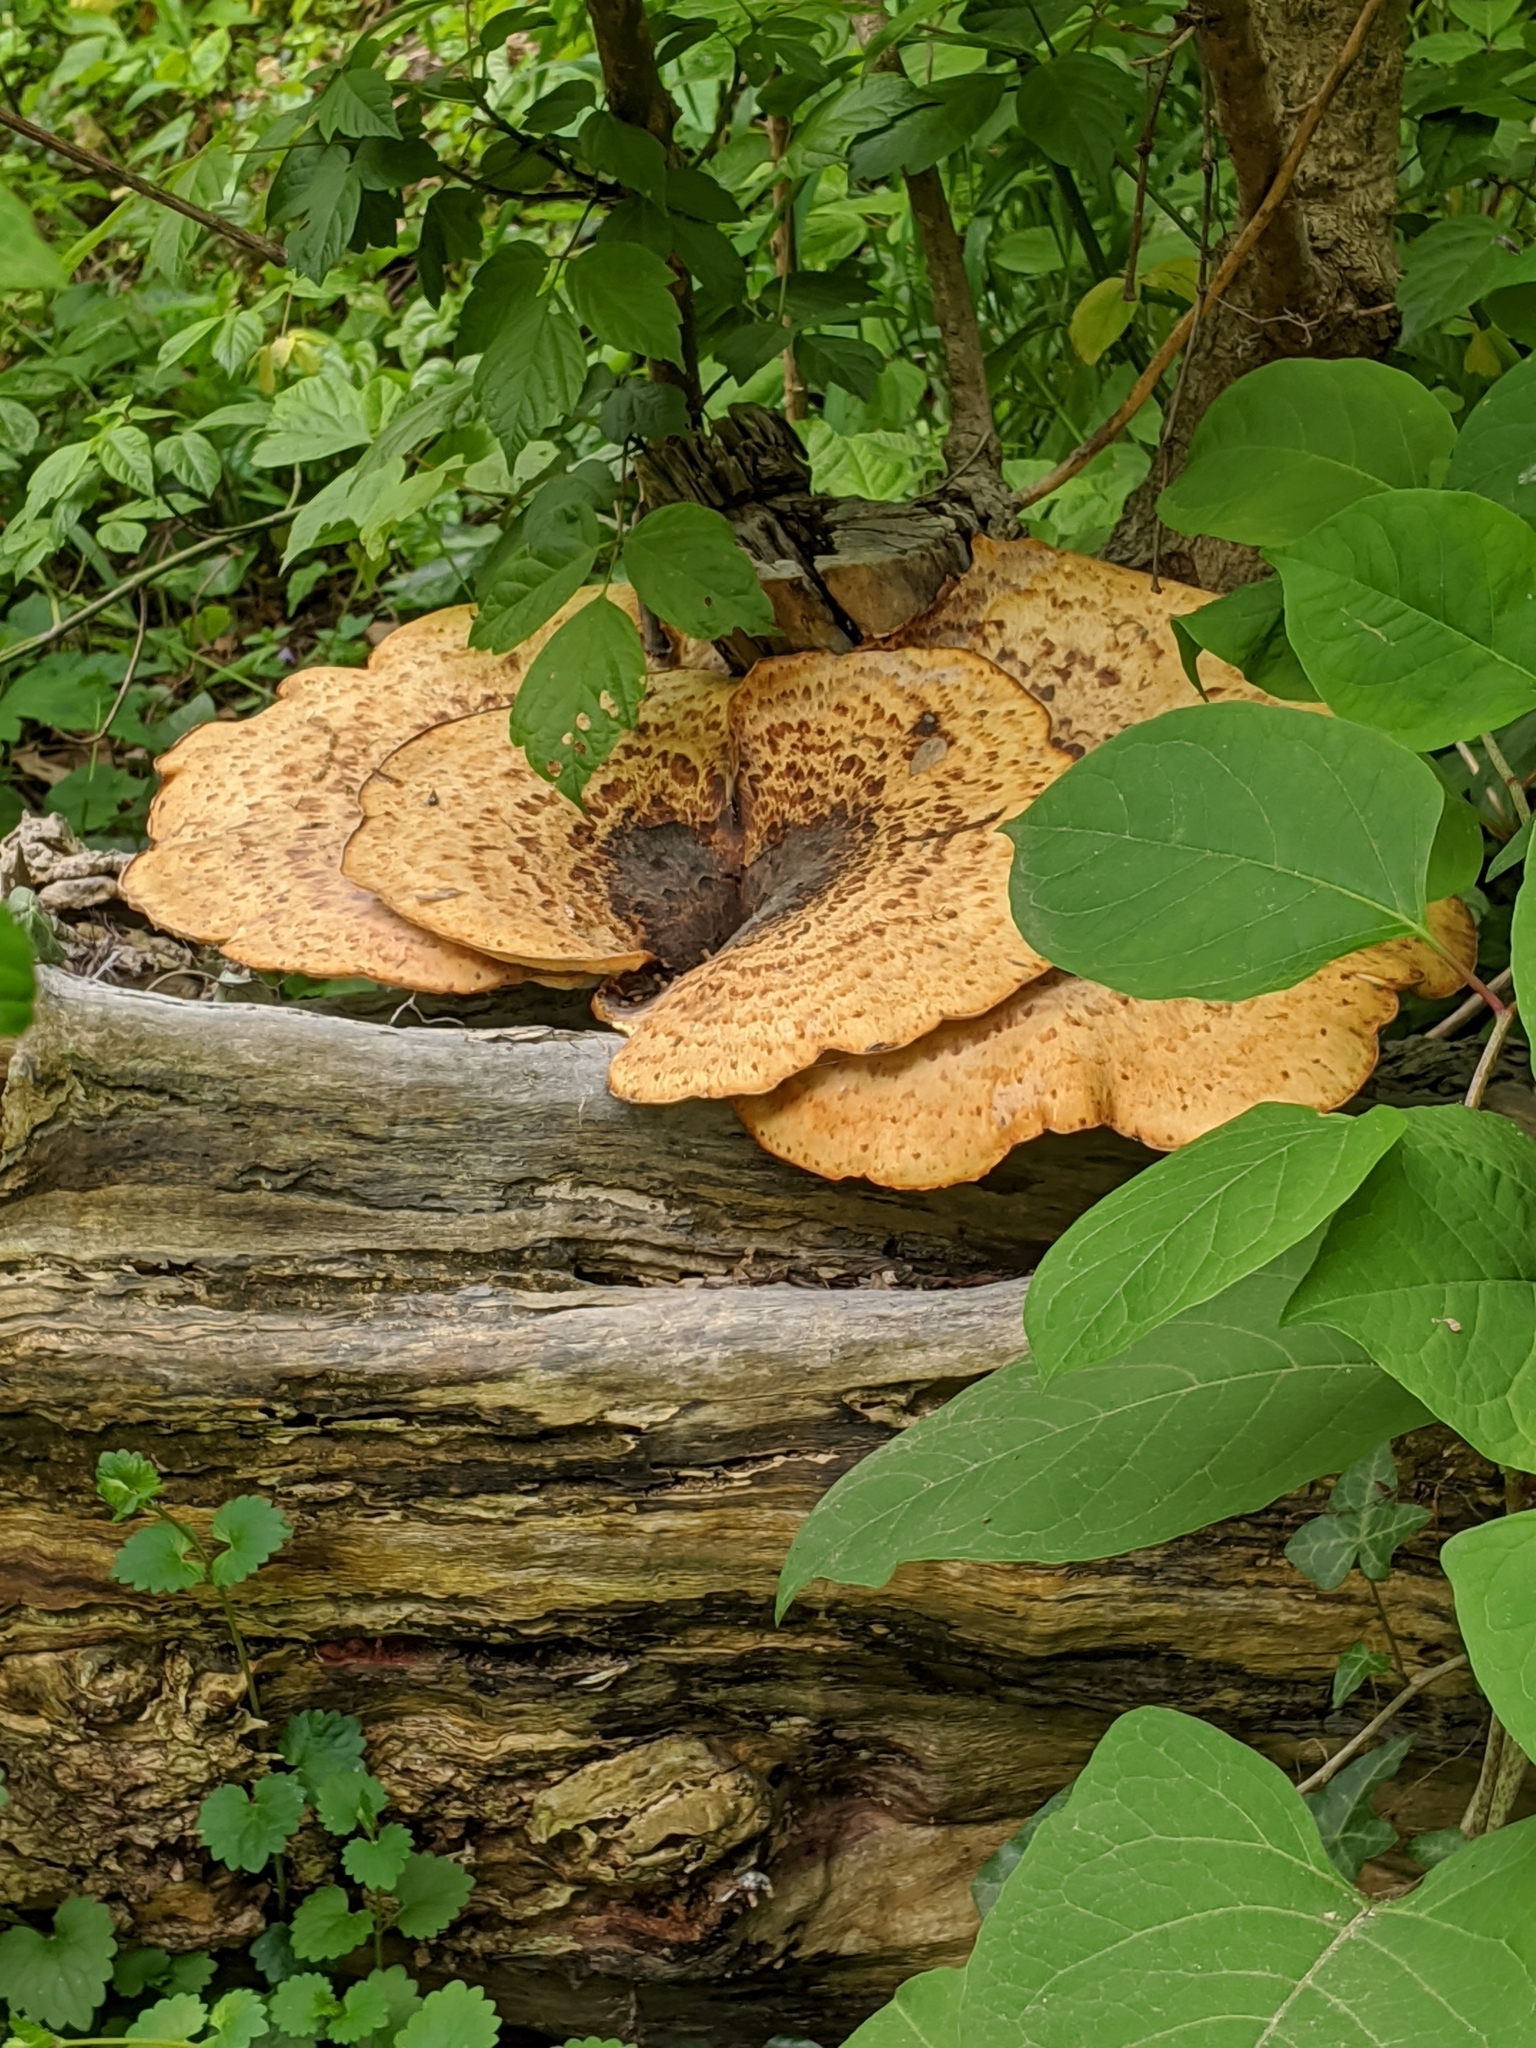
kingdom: Fungi
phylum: Basidiomycota
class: Agaricomycetes
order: Polyporales
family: Polyporaceae
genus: Cerioporus
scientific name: Cerioporus squamosus
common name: Dryad's saddle
